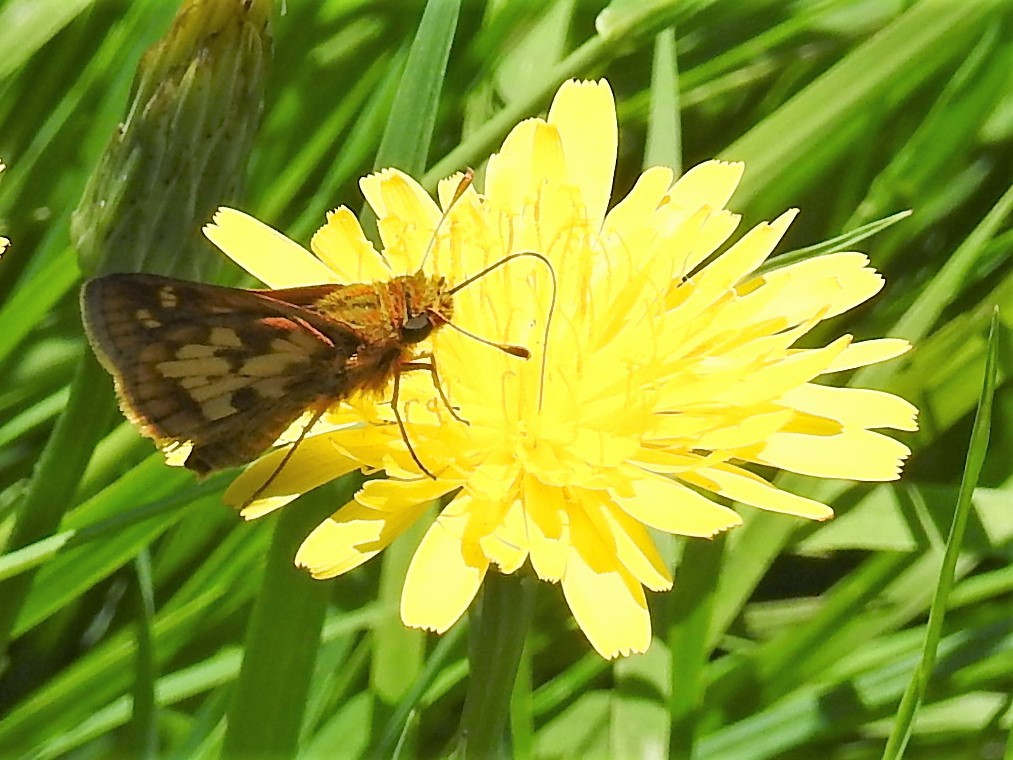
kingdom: Animalia
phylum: Arthropoda
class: Insecta
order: Lepidoptera
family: Hesperiidae
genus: Polites
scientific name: Polites coras
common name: Peck's skipper
